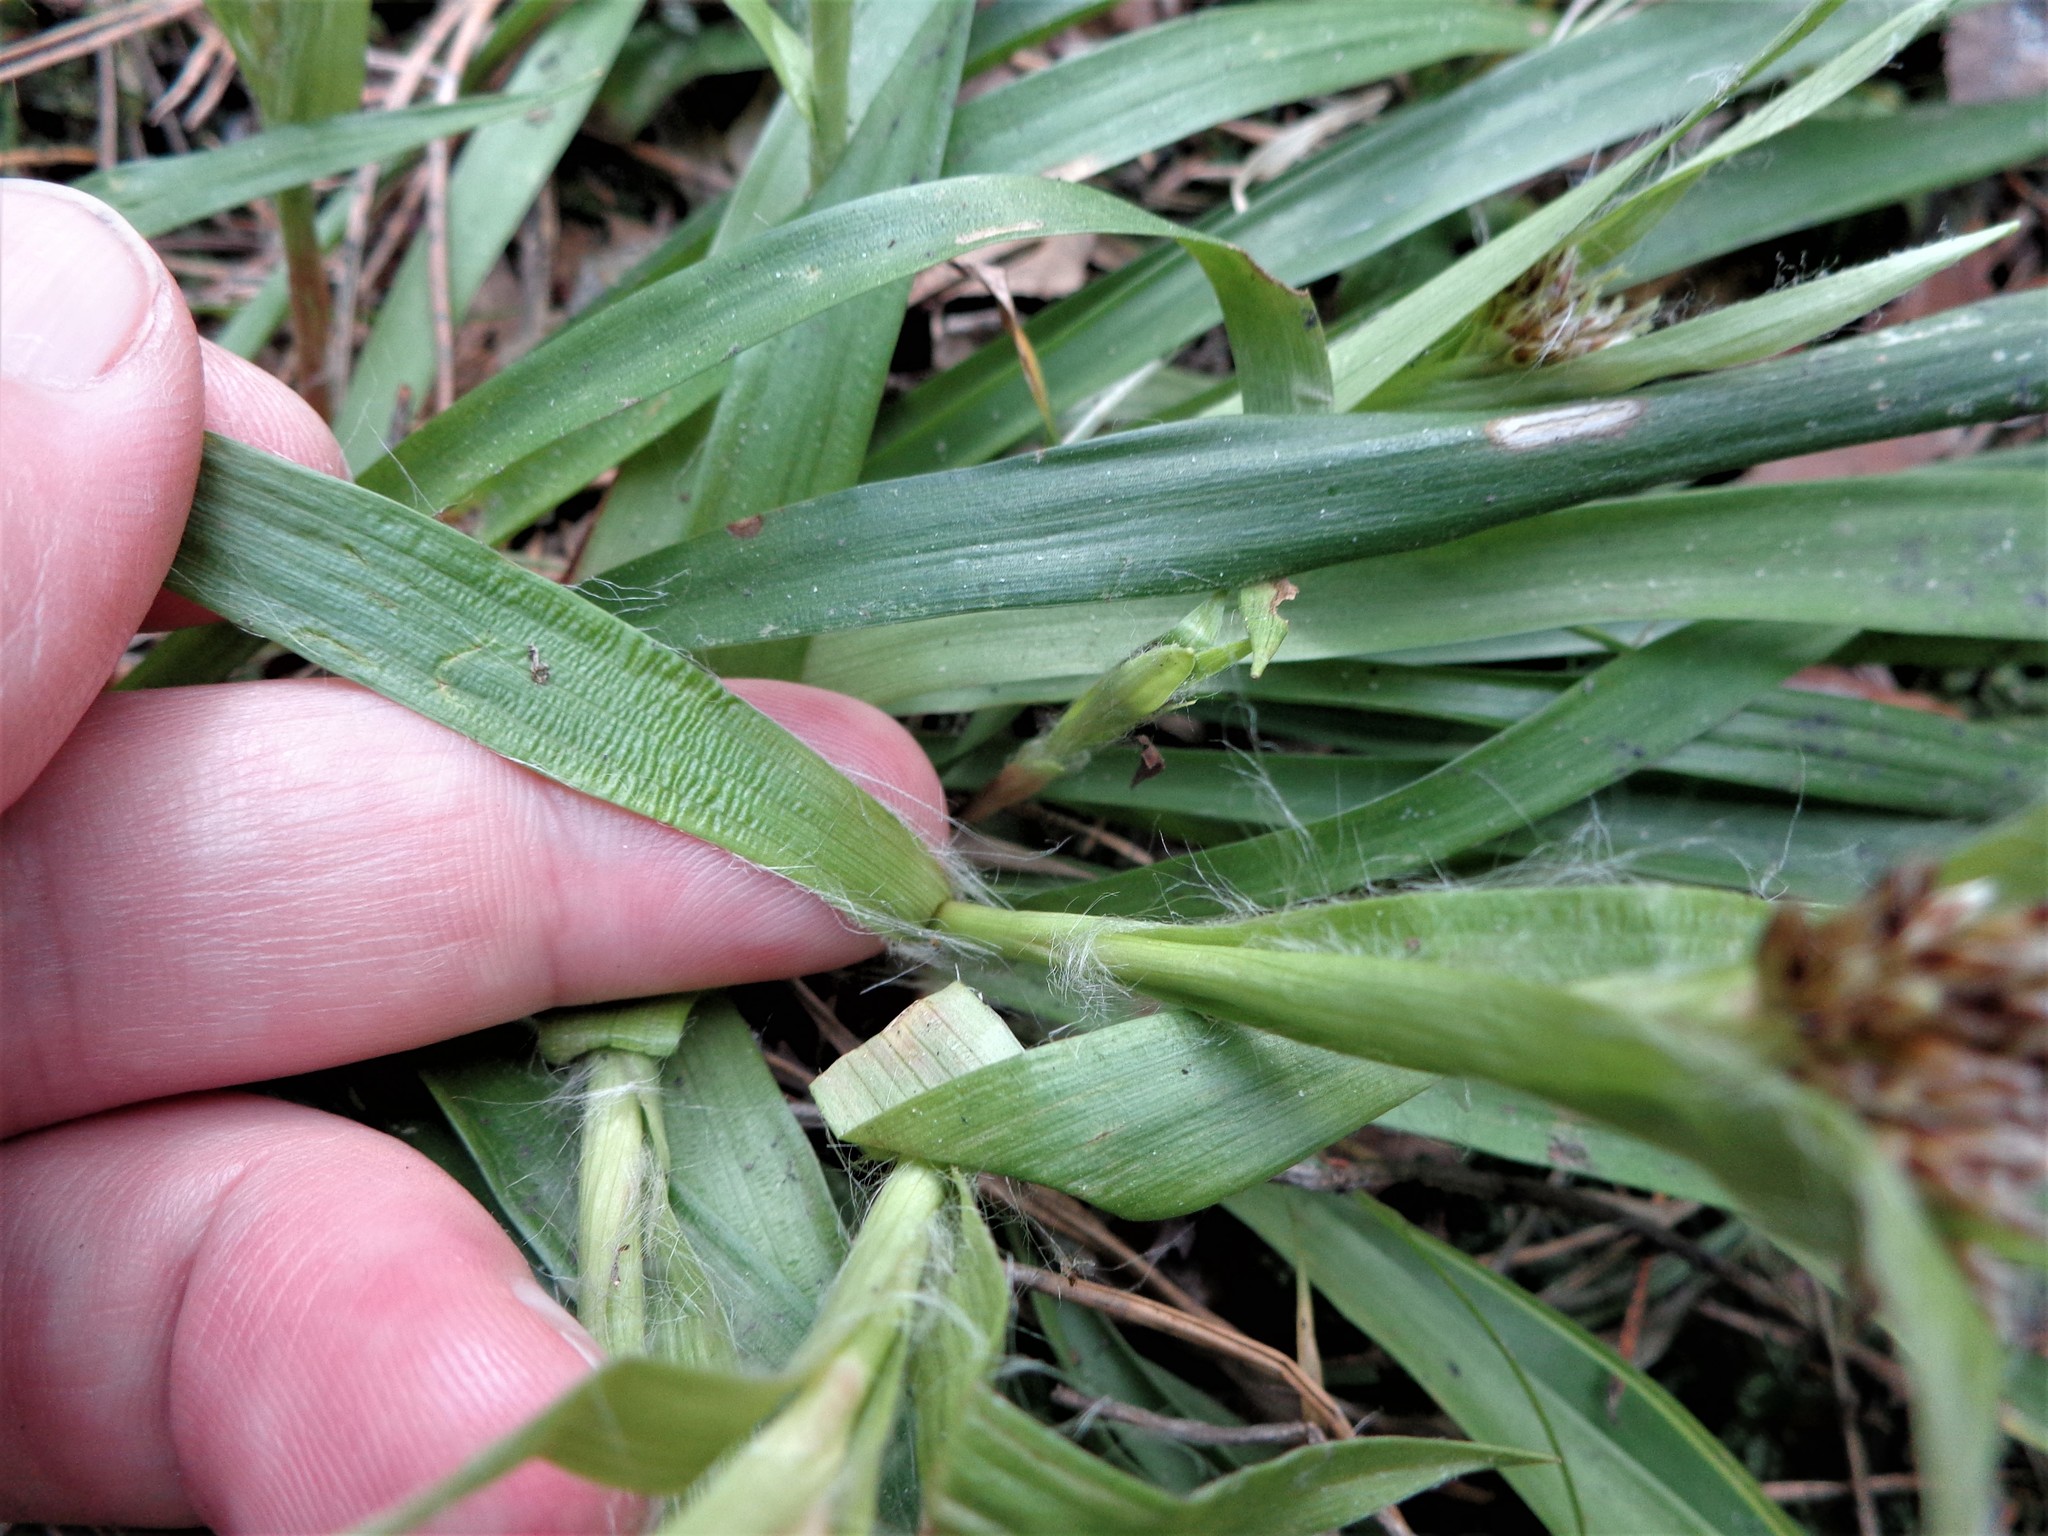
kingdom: Plantae
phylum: Tracheophyta
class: Liliopsida
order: Poales
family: Juncaceae
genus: Luzula
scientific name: Luzula pilosa
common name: Hairy wood-rush
